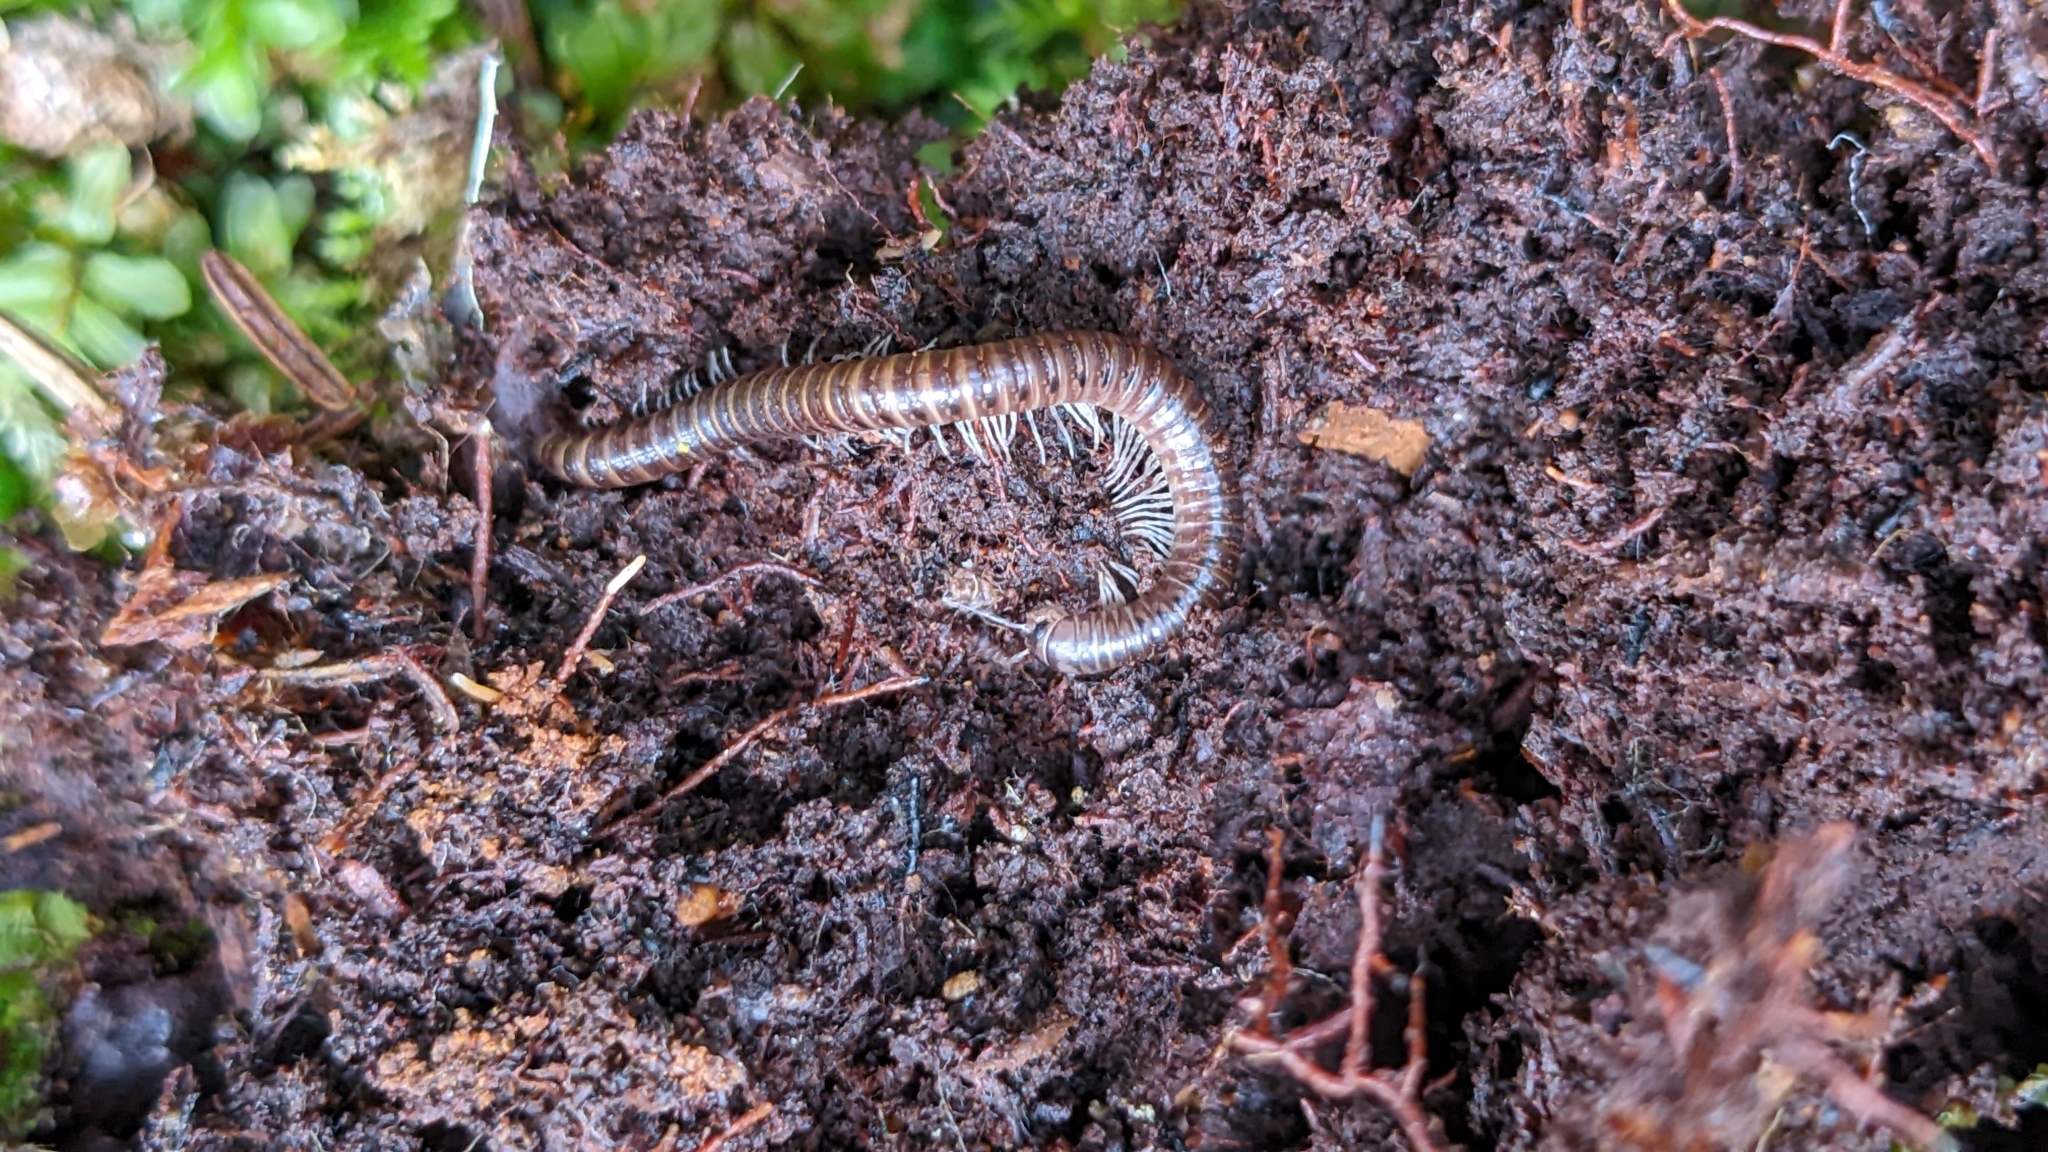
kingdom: Animalia
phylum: Arthropoda
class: Diplopoda
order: Julida
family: Parajulidae
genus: Litiulus
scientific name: Litiulus alaskanus
